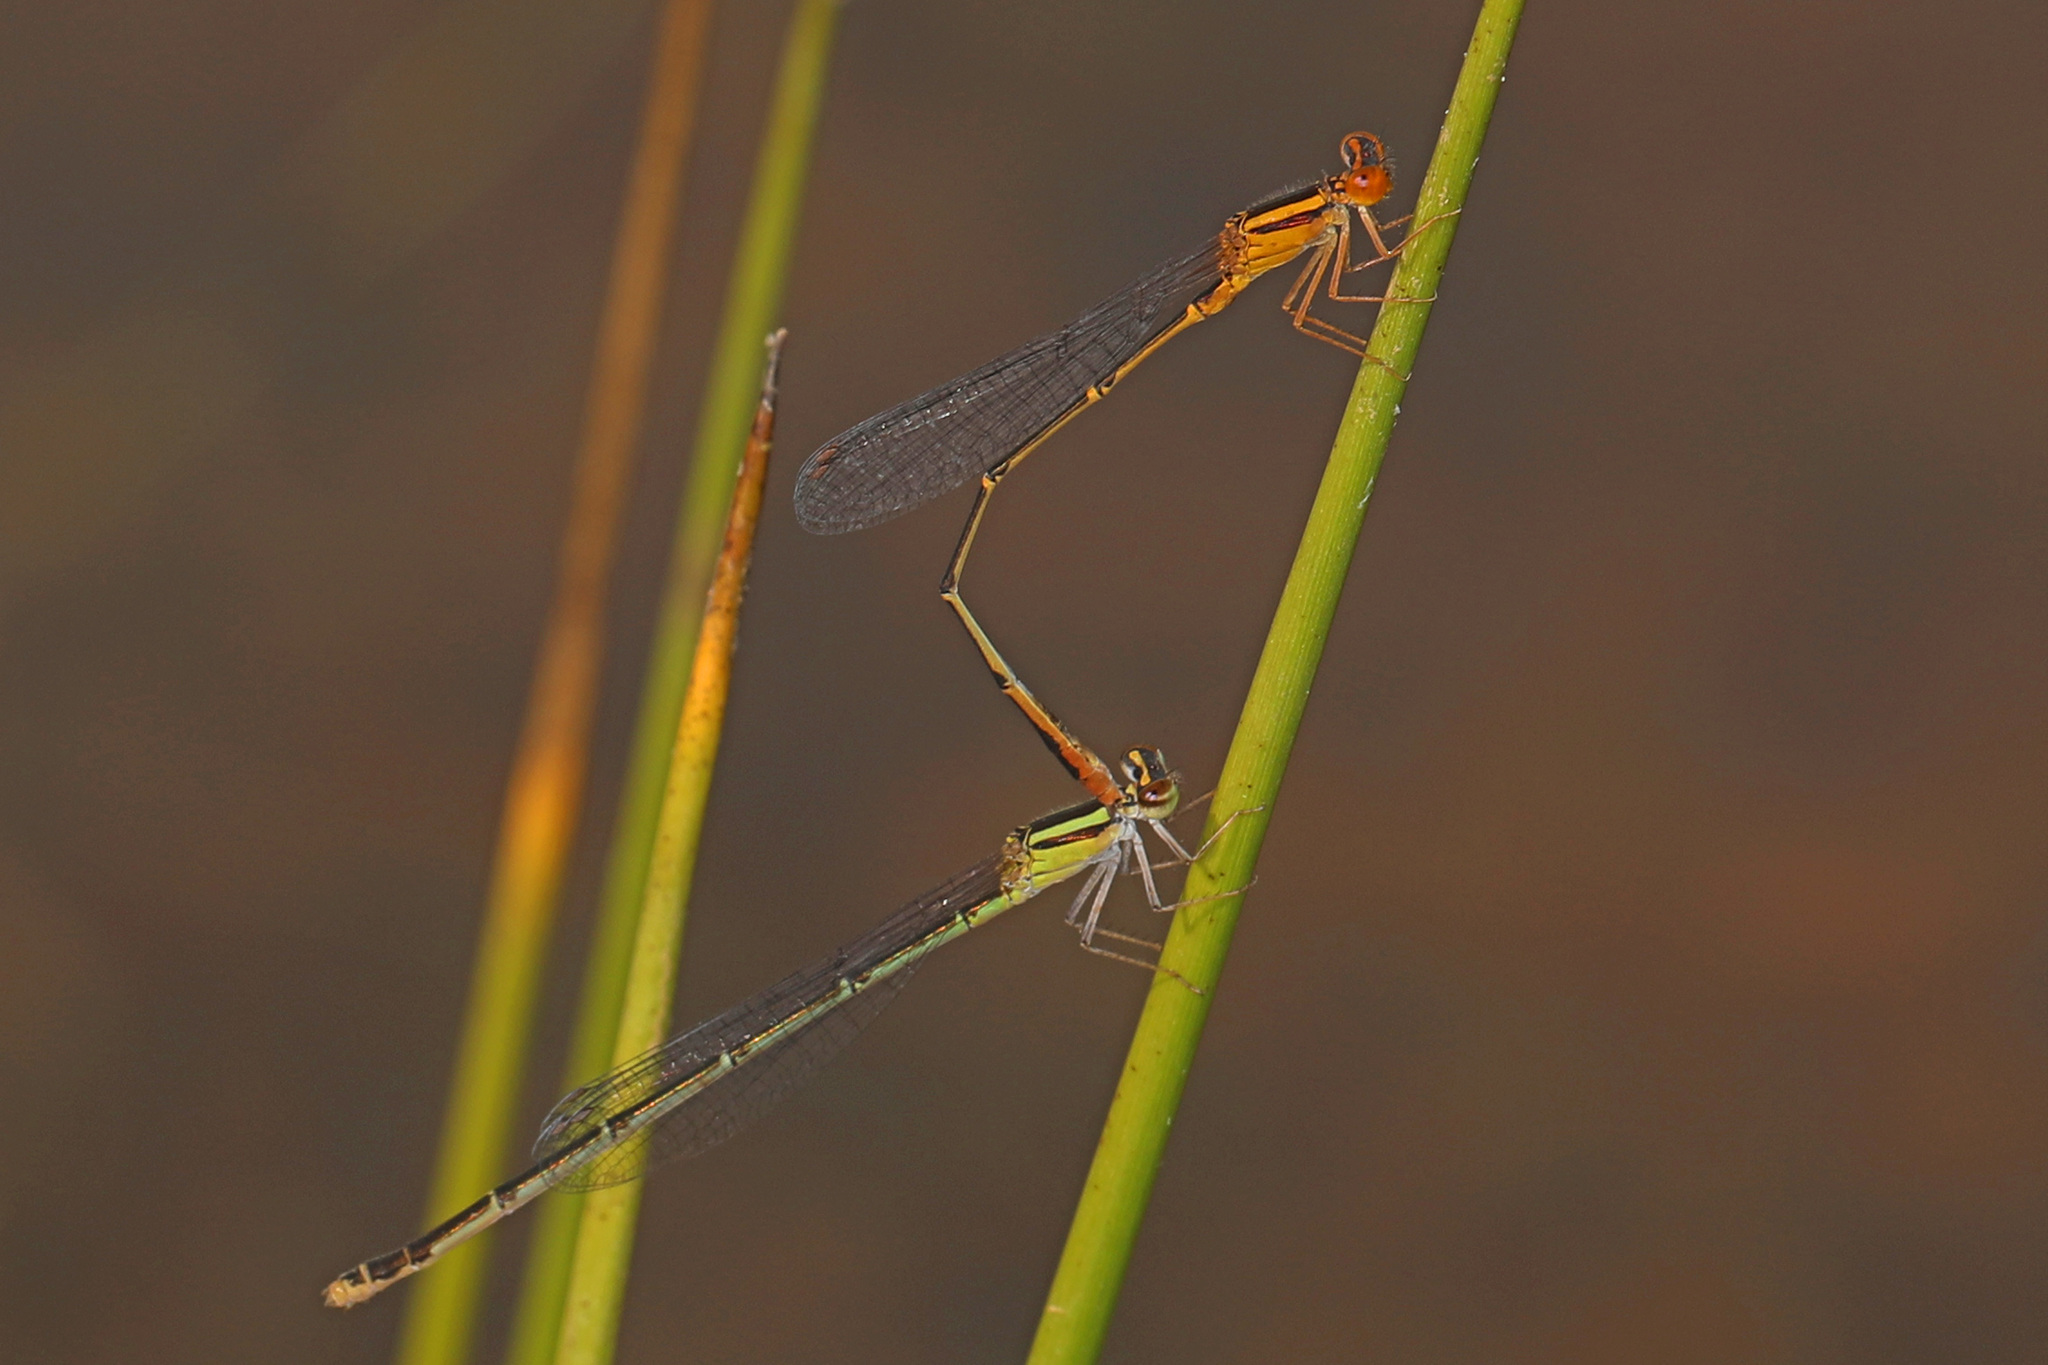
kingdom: Animalia
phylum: Arthropoda
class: Insecta
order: Odonata
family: Coenagrionidae
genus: Enallagma
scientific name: Enallagma signatum
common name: Orange bluet
